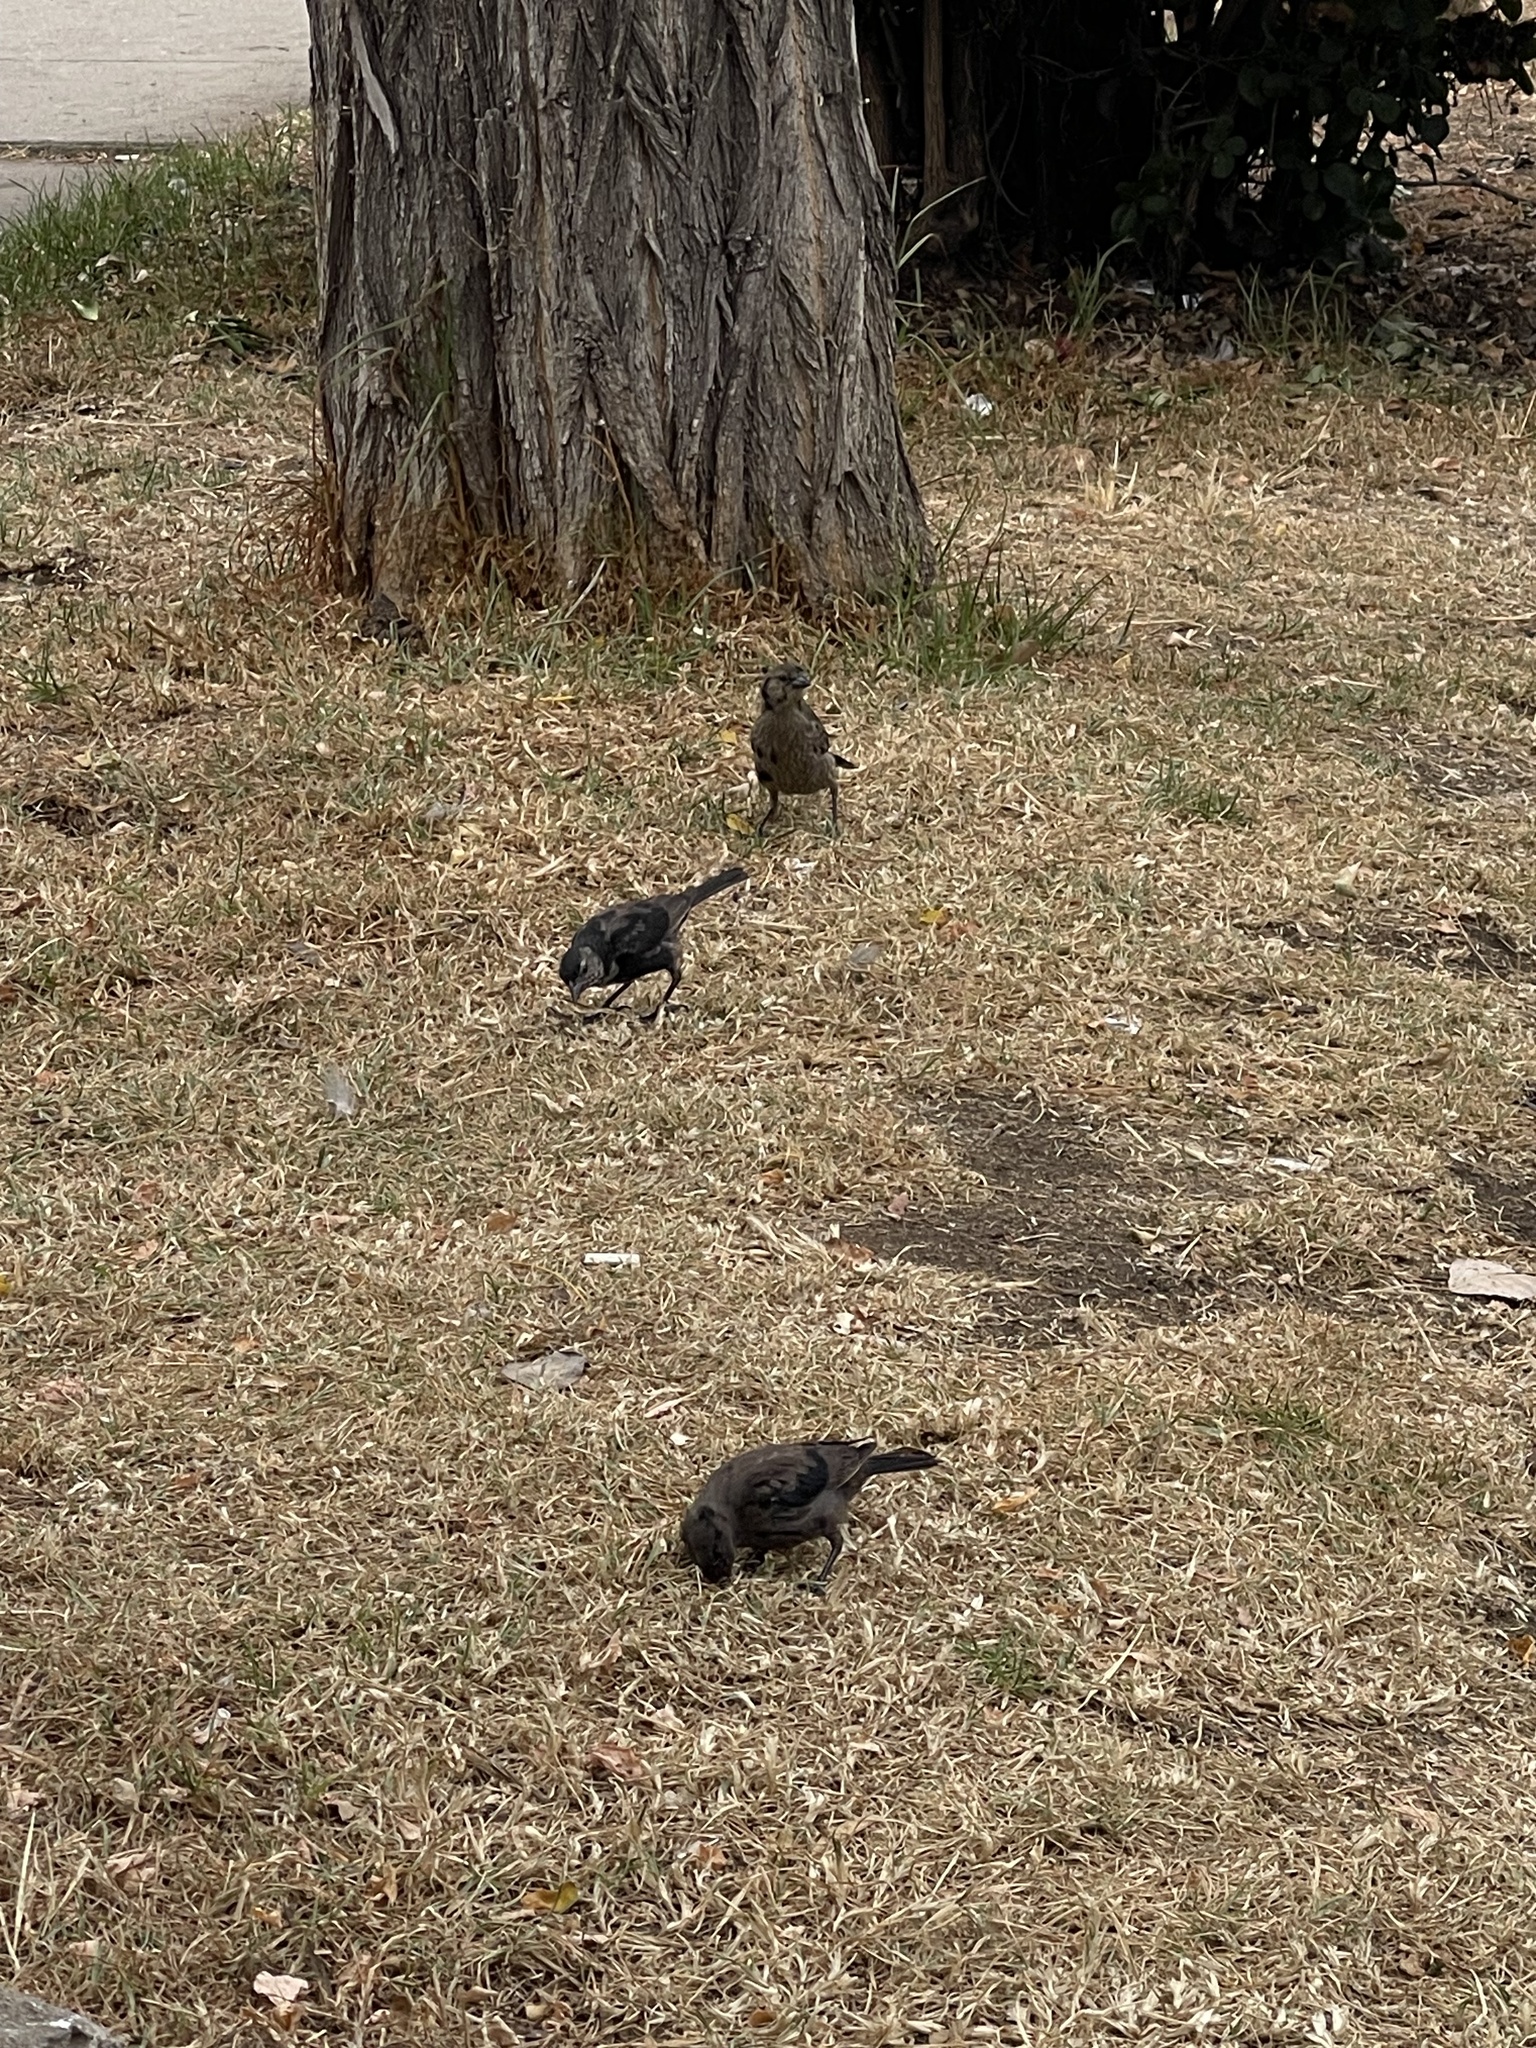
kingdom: Animalia
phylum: Chordata
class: Aves
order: Passeriformes
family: Icteridae
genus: Molothrus
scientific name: Molothrus bonariensis
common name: Shiny cowbird
